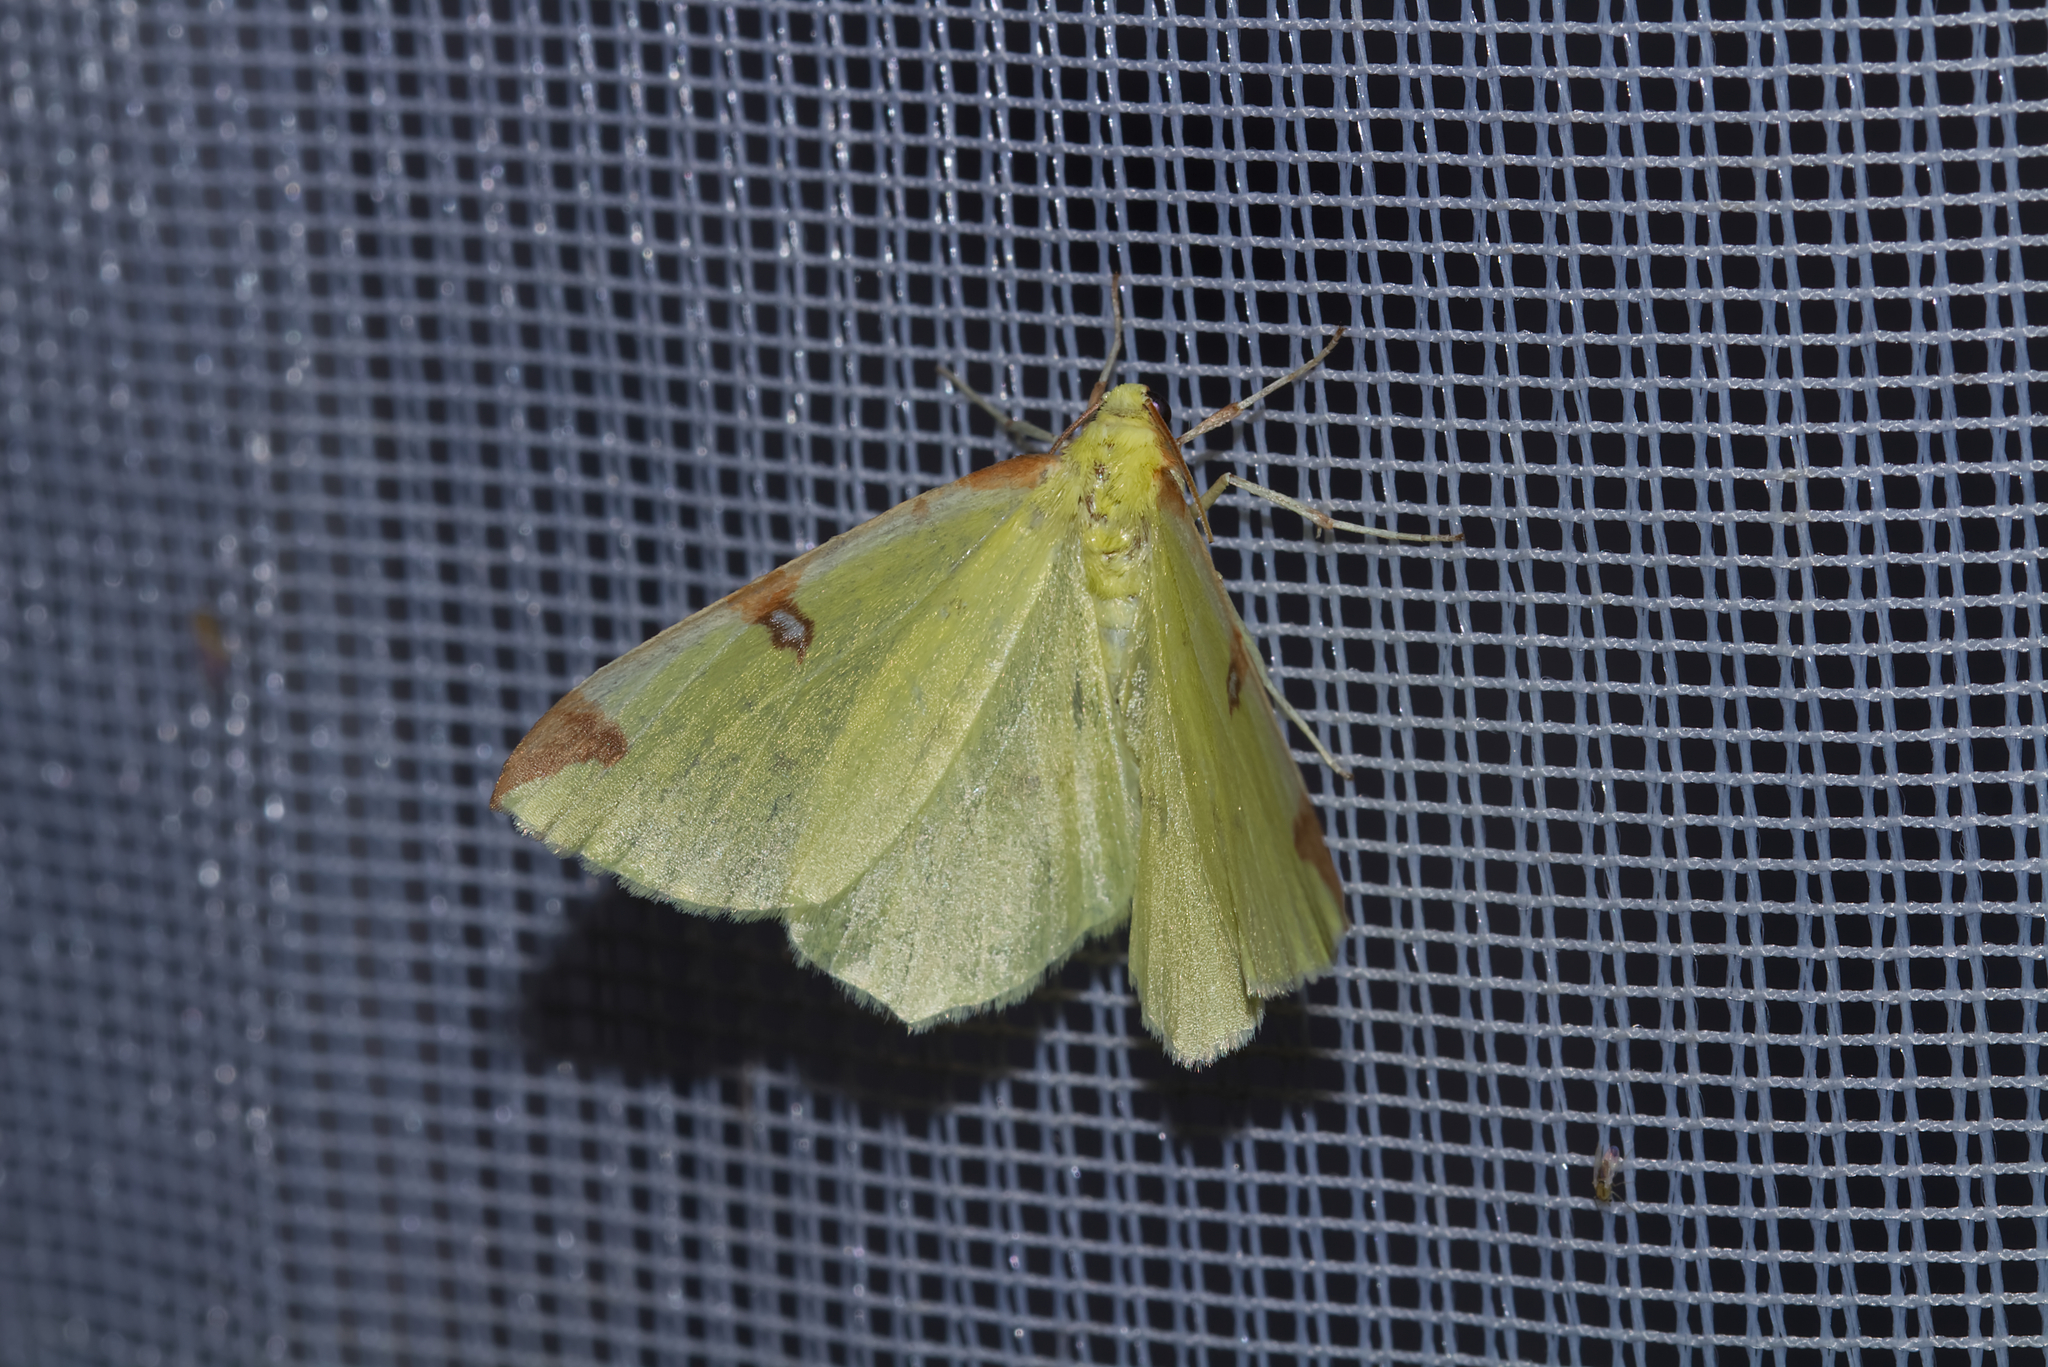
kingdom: Animalia
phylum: Arthropoda
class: Insecta
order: Lepidoptera
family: Geometridae
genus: Opisthograptis
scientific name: Opisthograptis luteolata
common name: Brimstone moth
